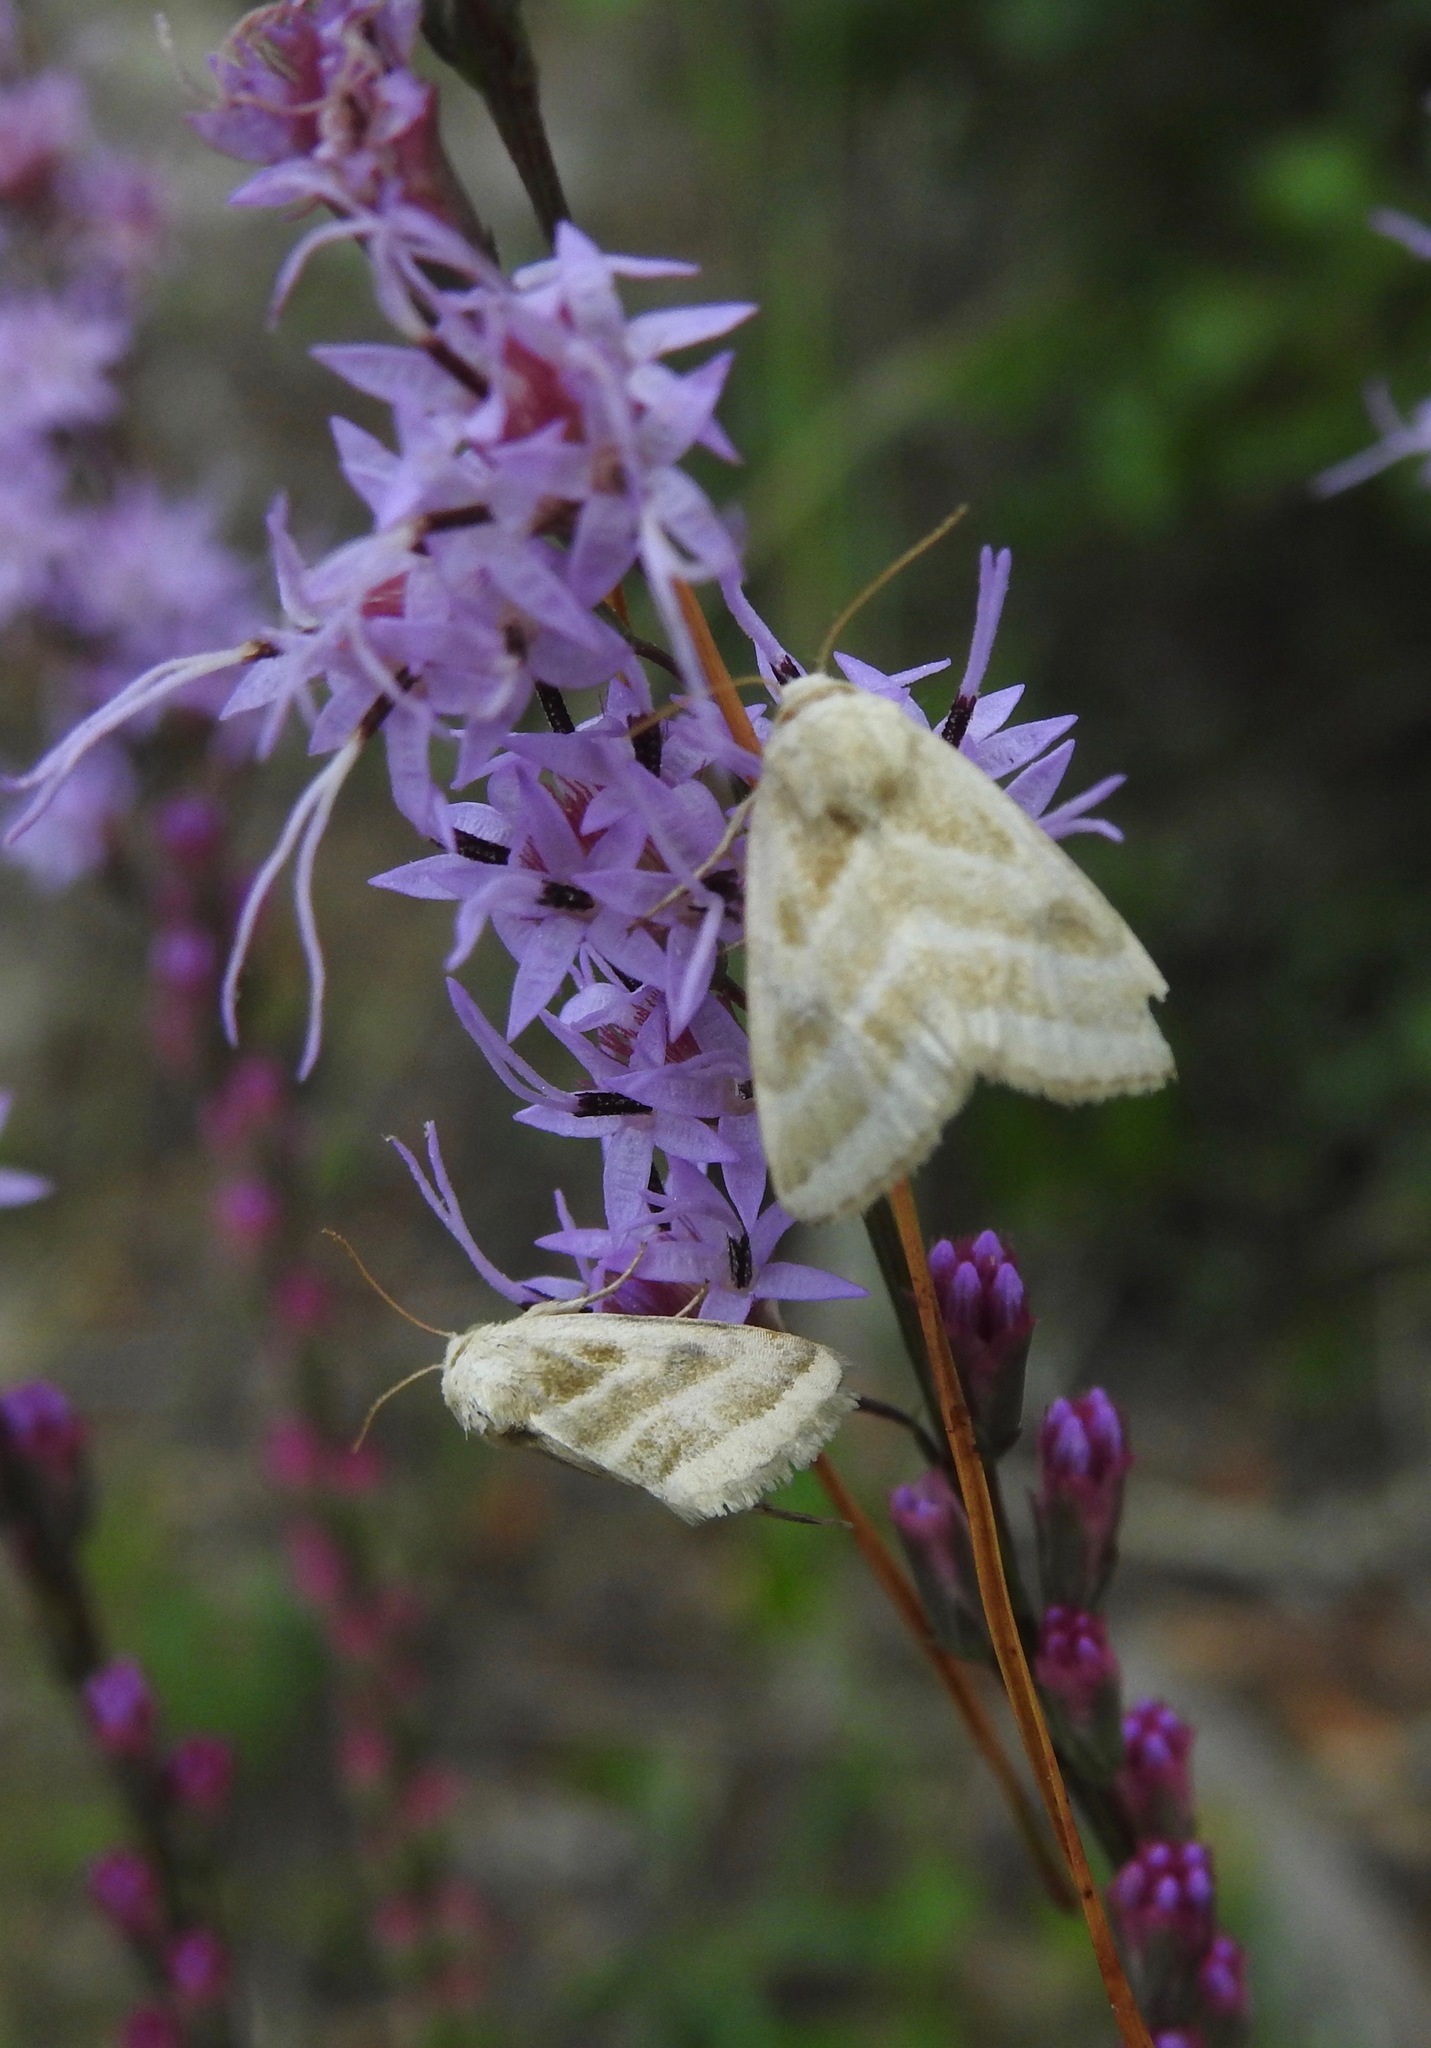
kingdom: Animalia
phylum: Arthropoda
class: Insecta
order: Lepidoptera
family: Noctuidae
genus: Schinia
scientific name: Schinia trifascia
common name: Three-lined flower moth
